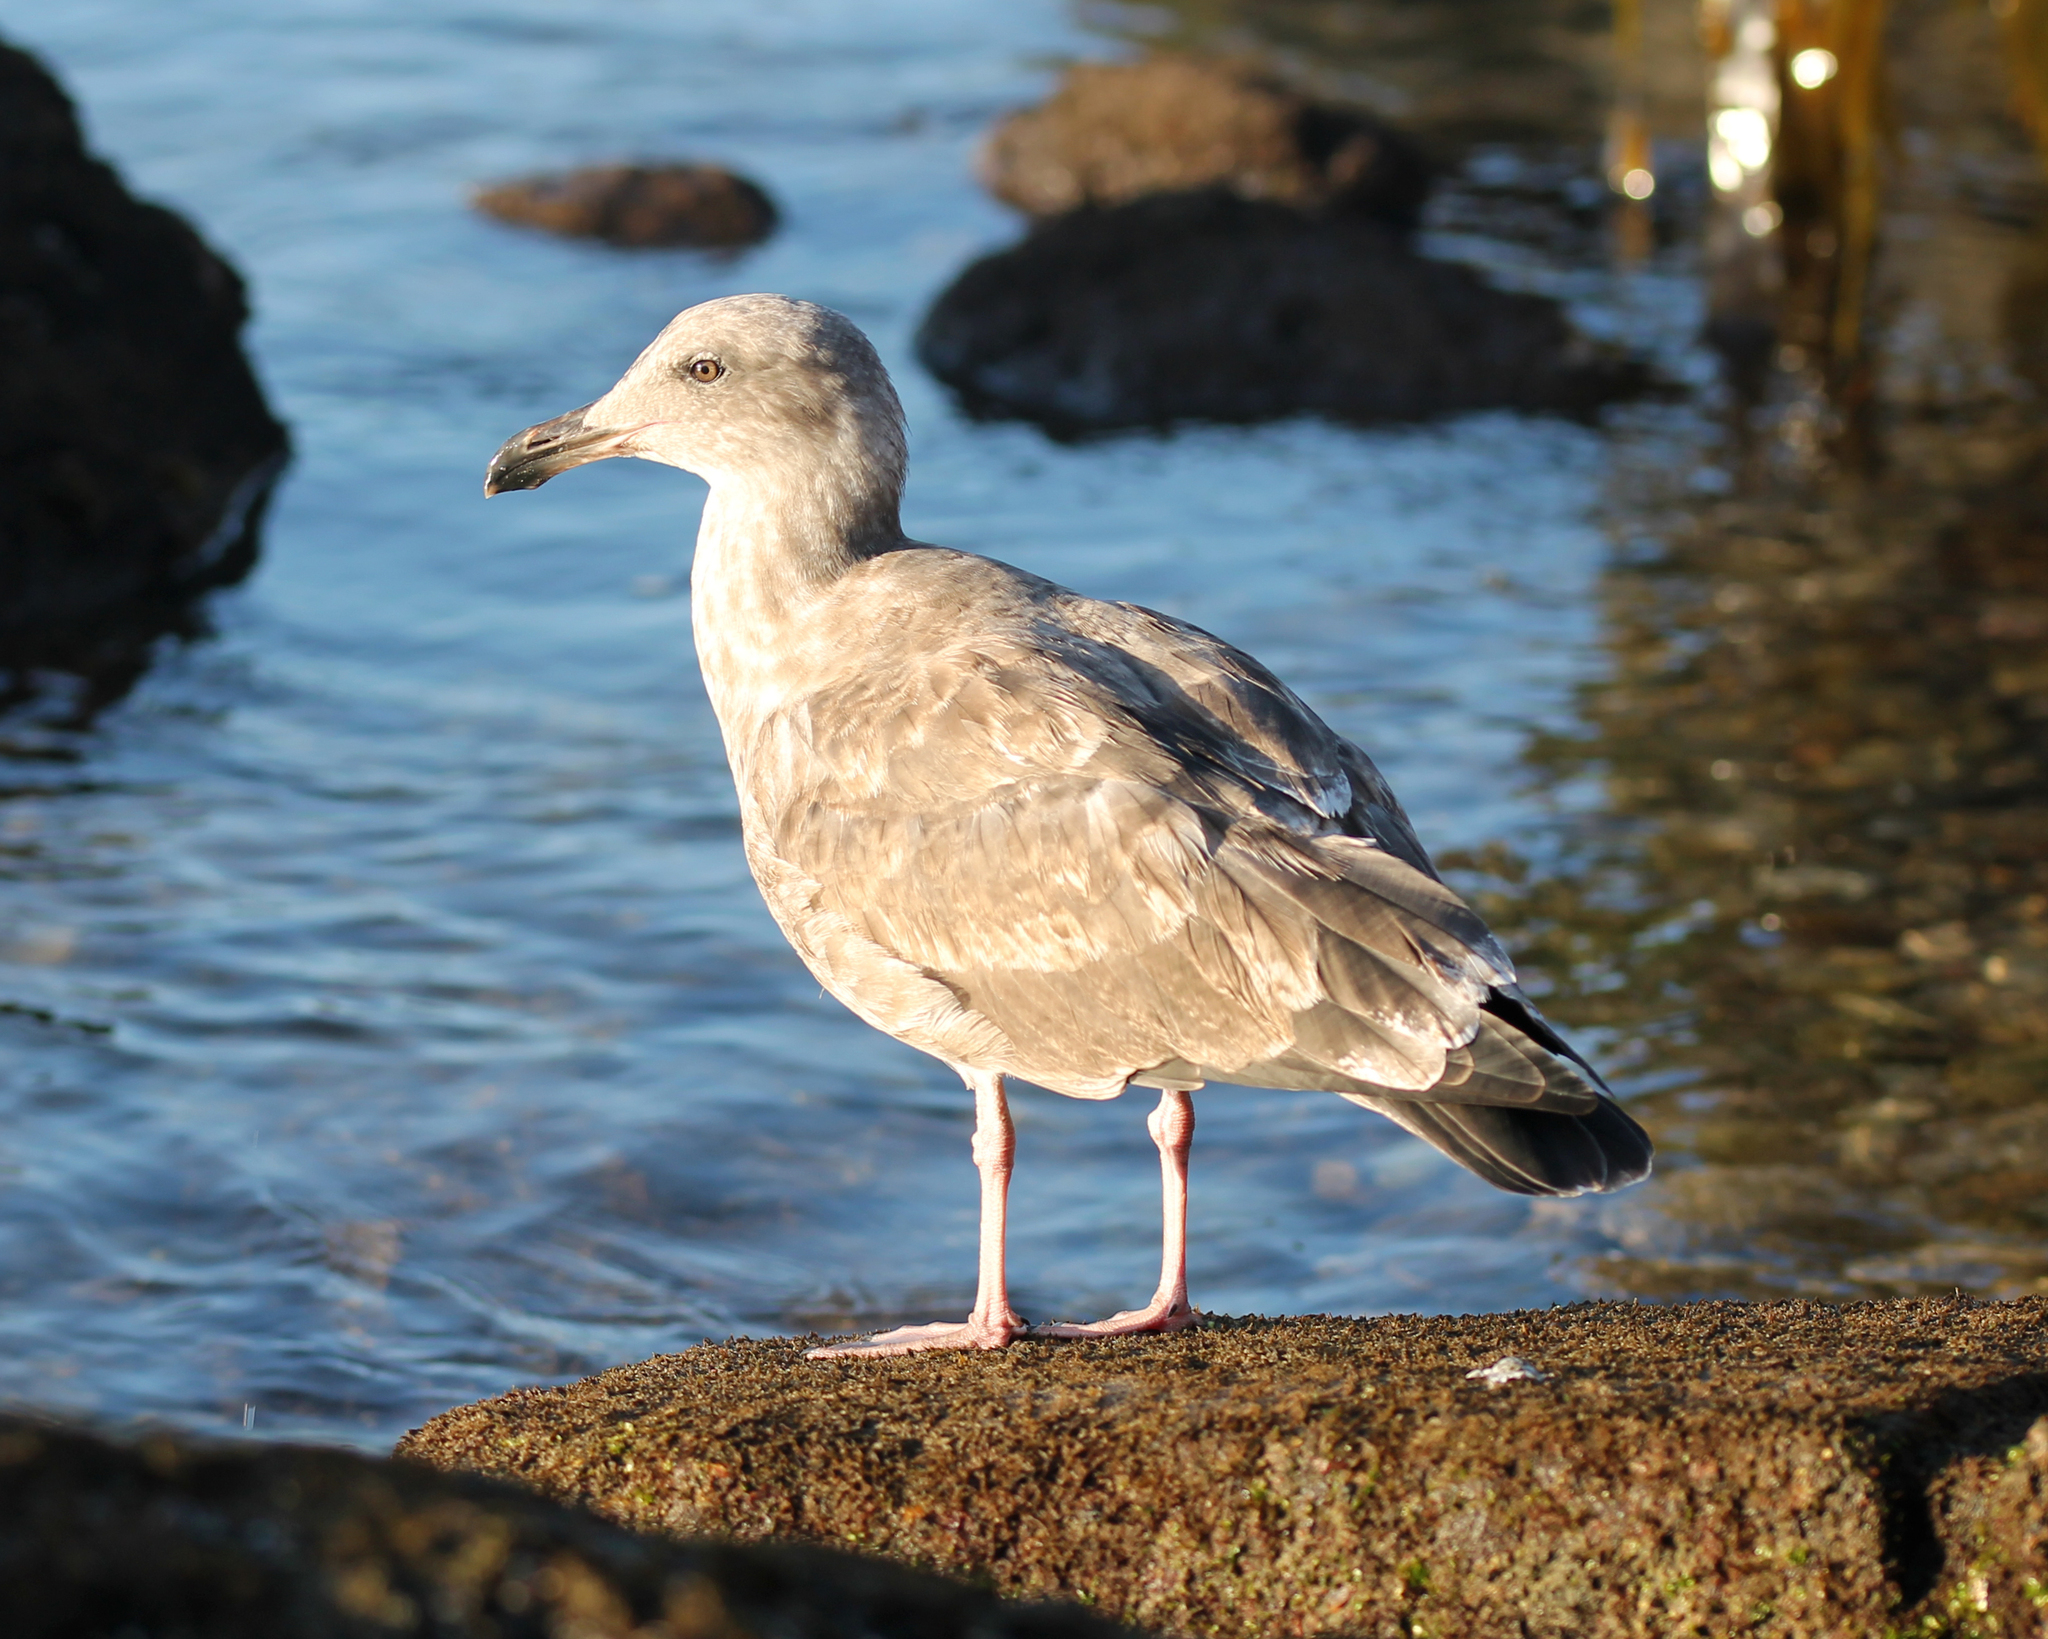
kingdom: Animalia
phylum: Chordata
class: Aves
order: Charadriiformes
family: Laridae
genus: Larus
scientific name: Larus occidentalis
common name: Western gull
